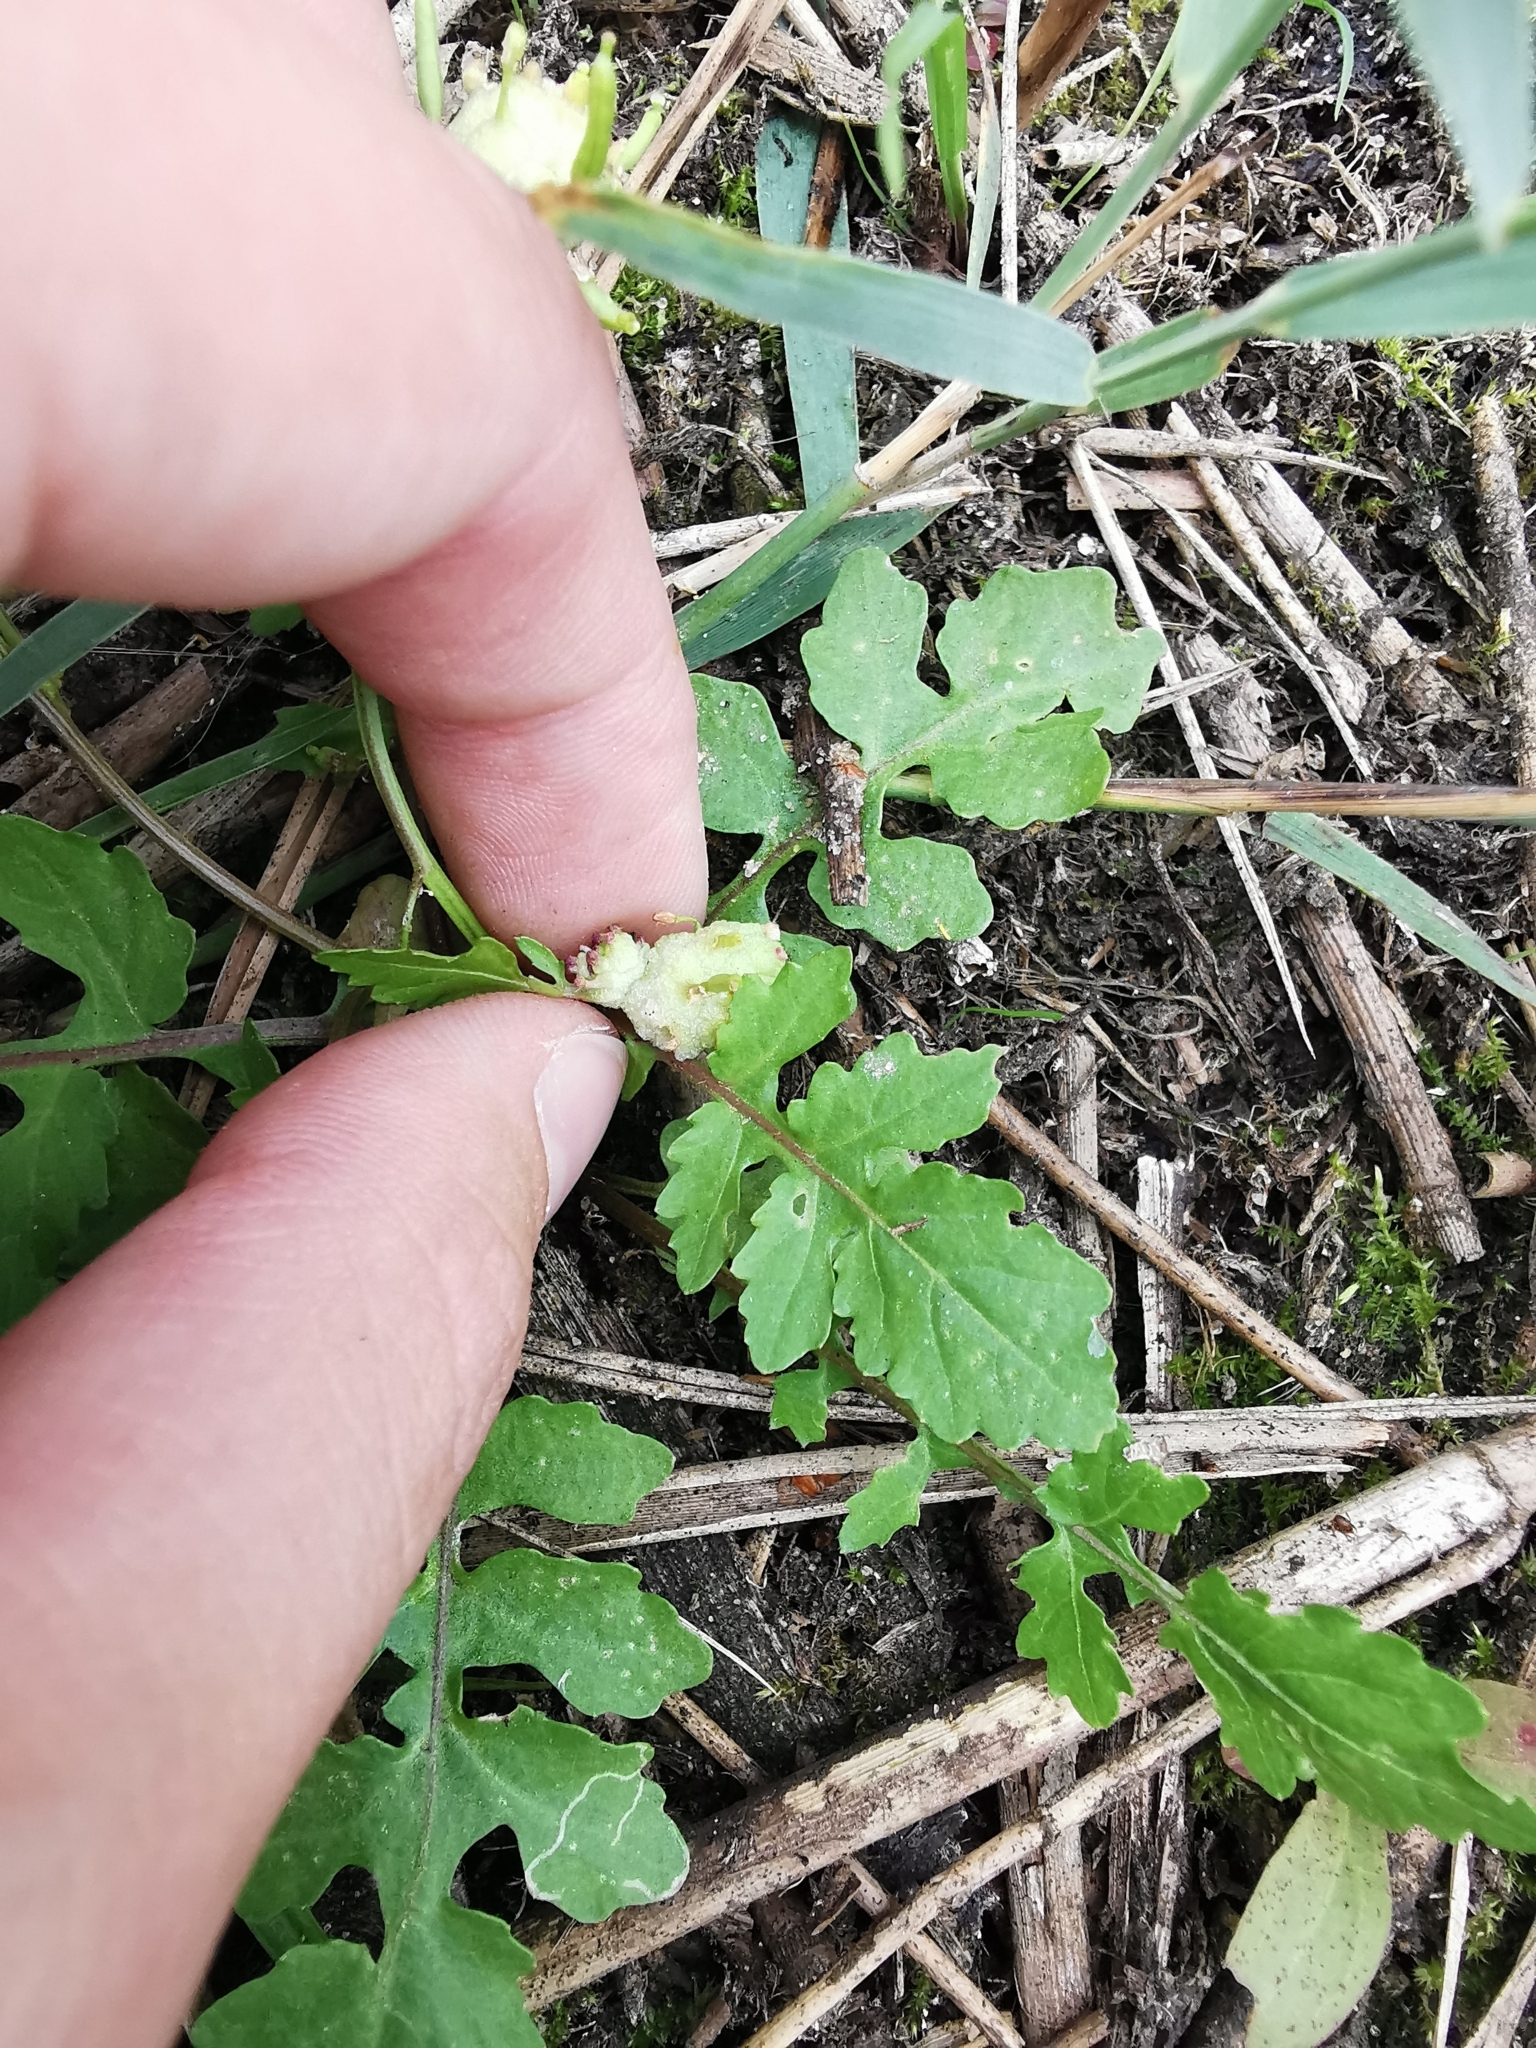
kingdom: Plantae
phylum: Tracheophyta
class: Magnoliopsida
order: Brassicales
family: Brassicaceae
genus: Rorippa
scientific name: Rorippa palustris
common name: Marsh yellow-cress
